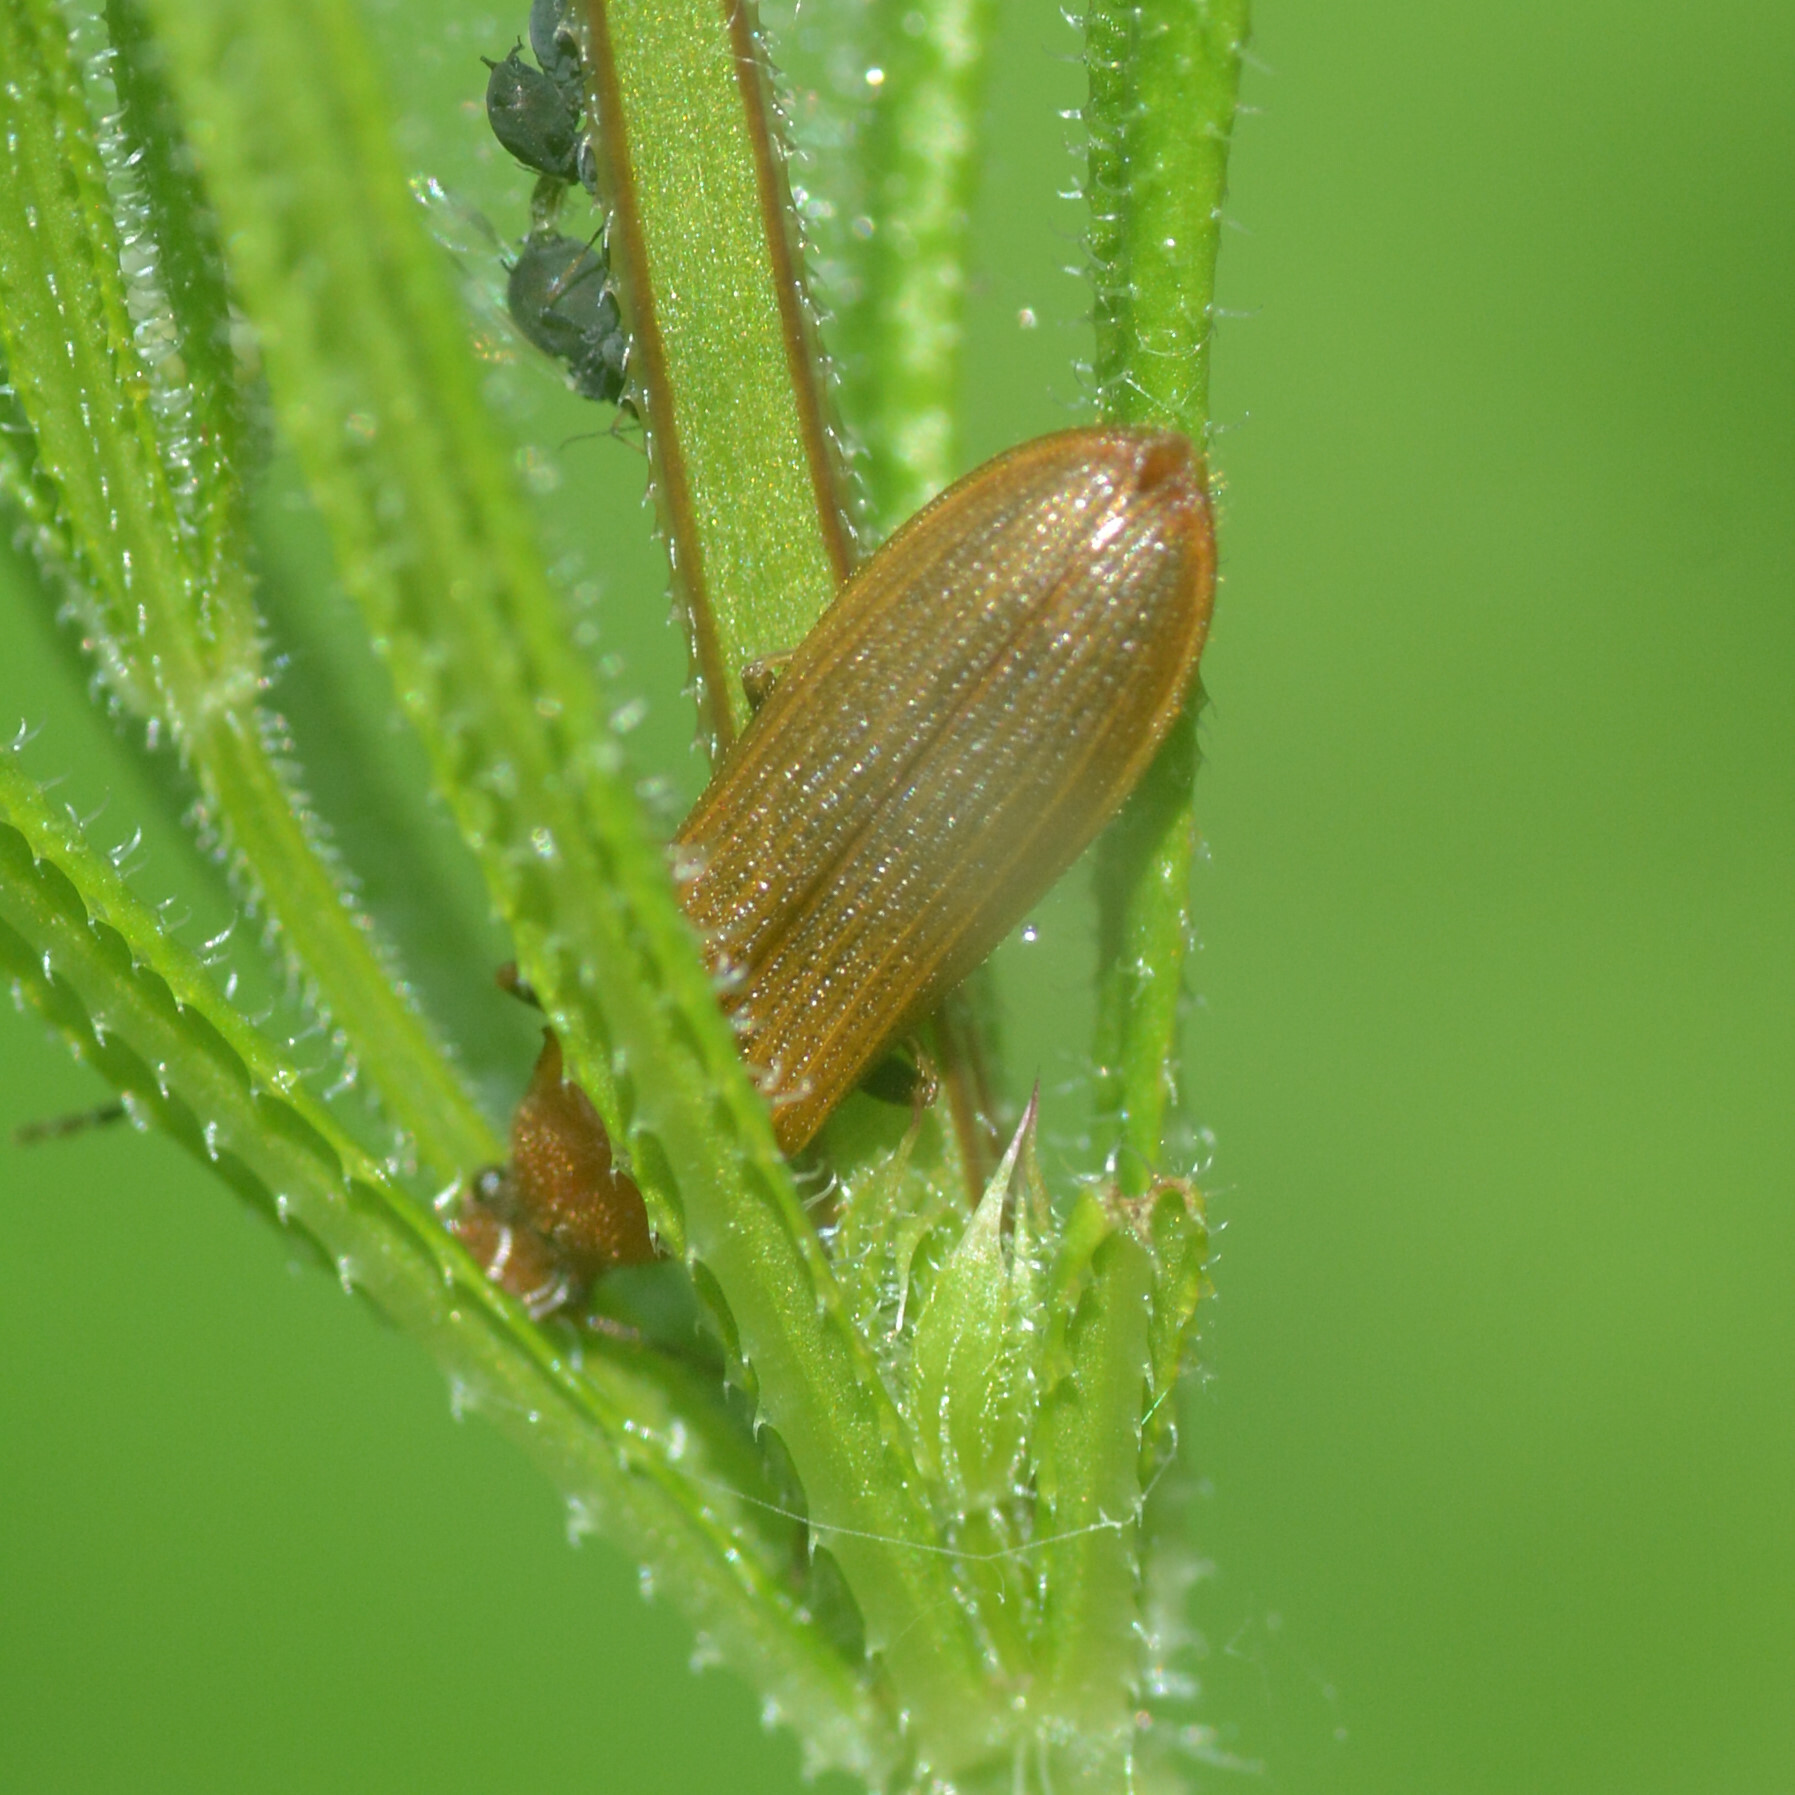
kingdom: Animalia
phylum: Arthropoda
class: Insecta
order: Coleoptera
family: Elateridae
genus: Denticollis
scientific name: Denticollis linearis
